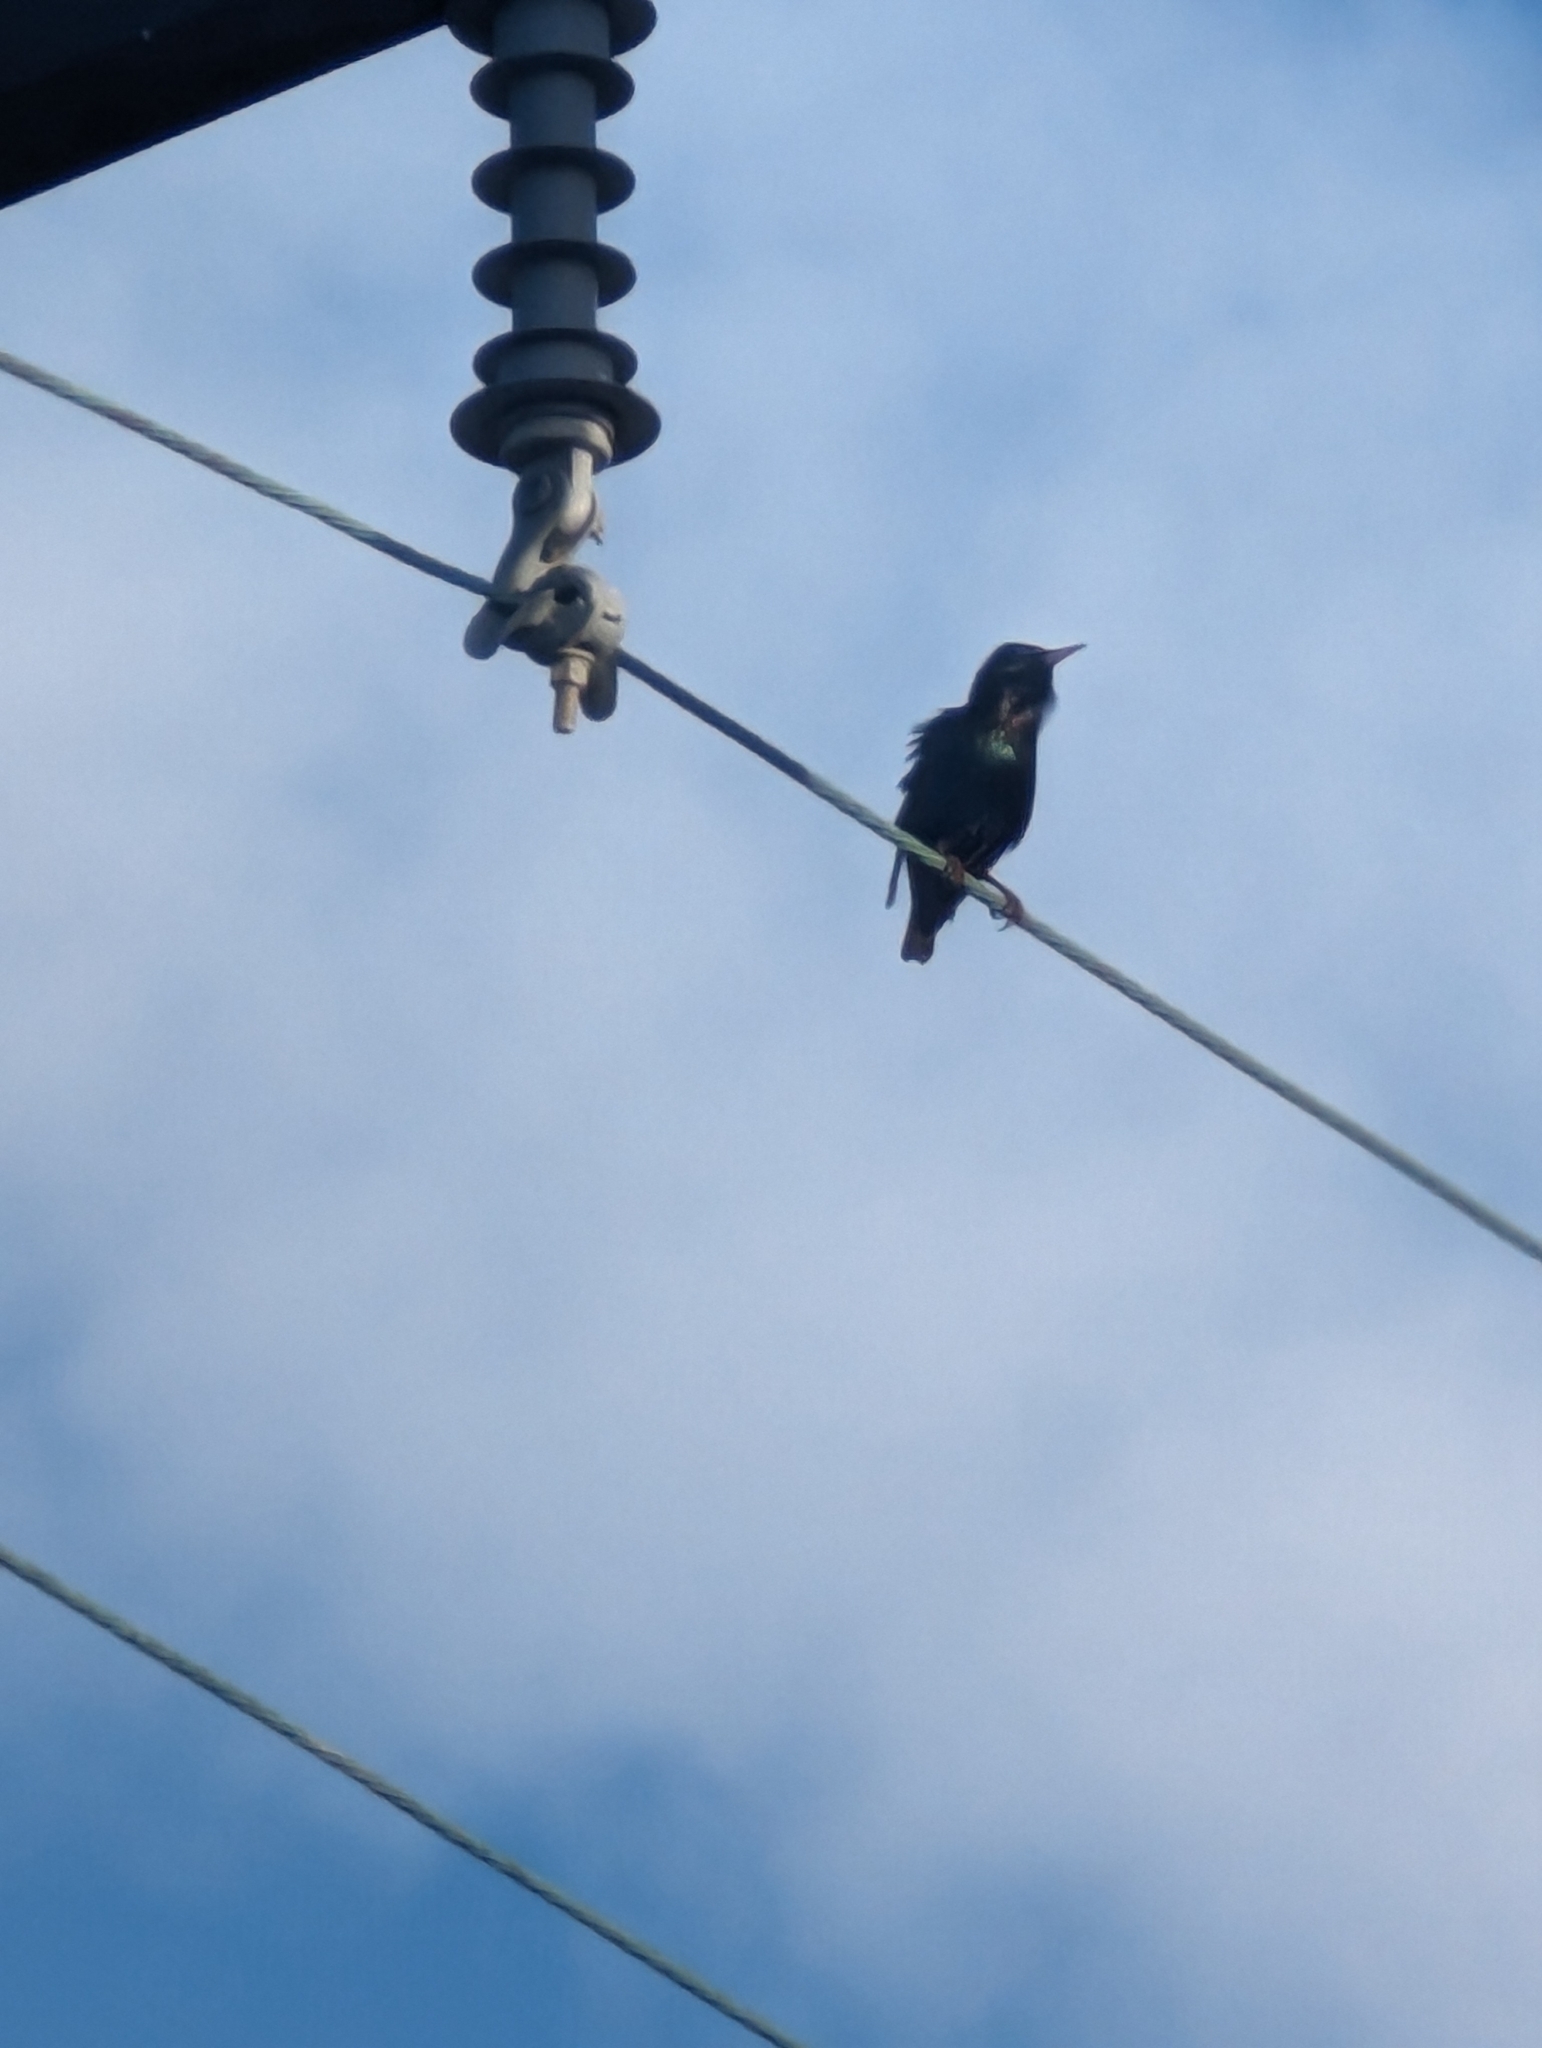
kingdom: Animalia
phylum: Chordata
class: Aves
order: Passeriformes
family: Sturnidae
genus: Sturnus
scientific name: Sturnus vulgaris
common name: Common starling
